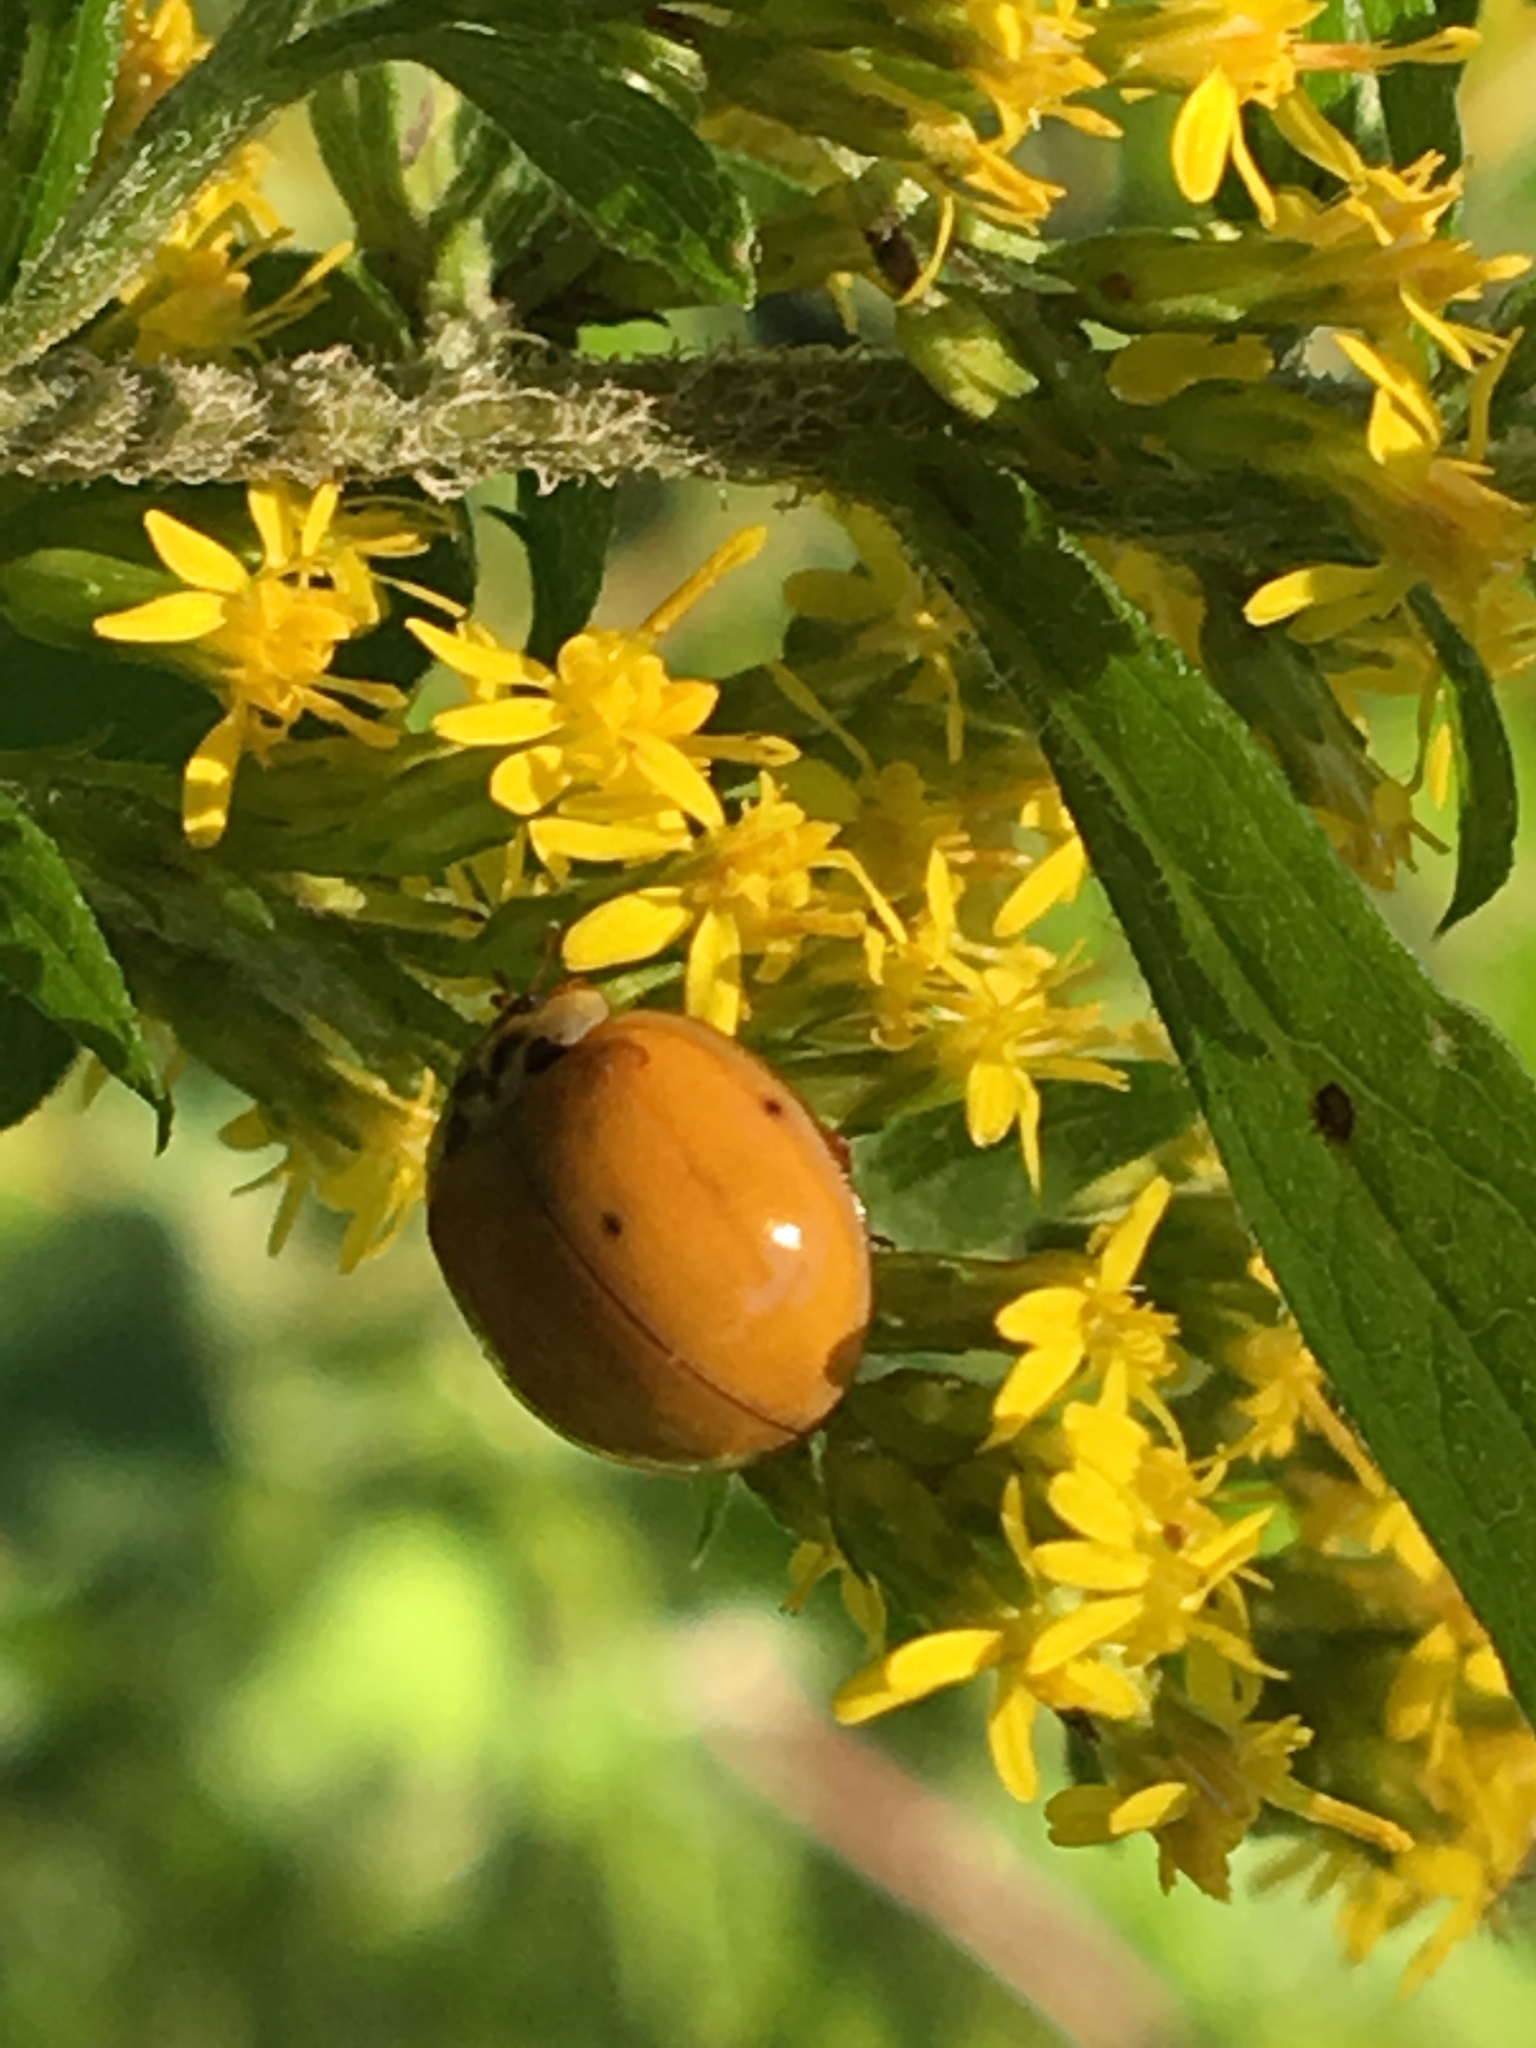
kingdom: Animalia
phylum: Arthropoda
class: Insecta
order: Coleoptera
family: Coccinellidae
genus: Harmonia
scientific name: Harmonia axyridis
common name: Harlequin ladybird
